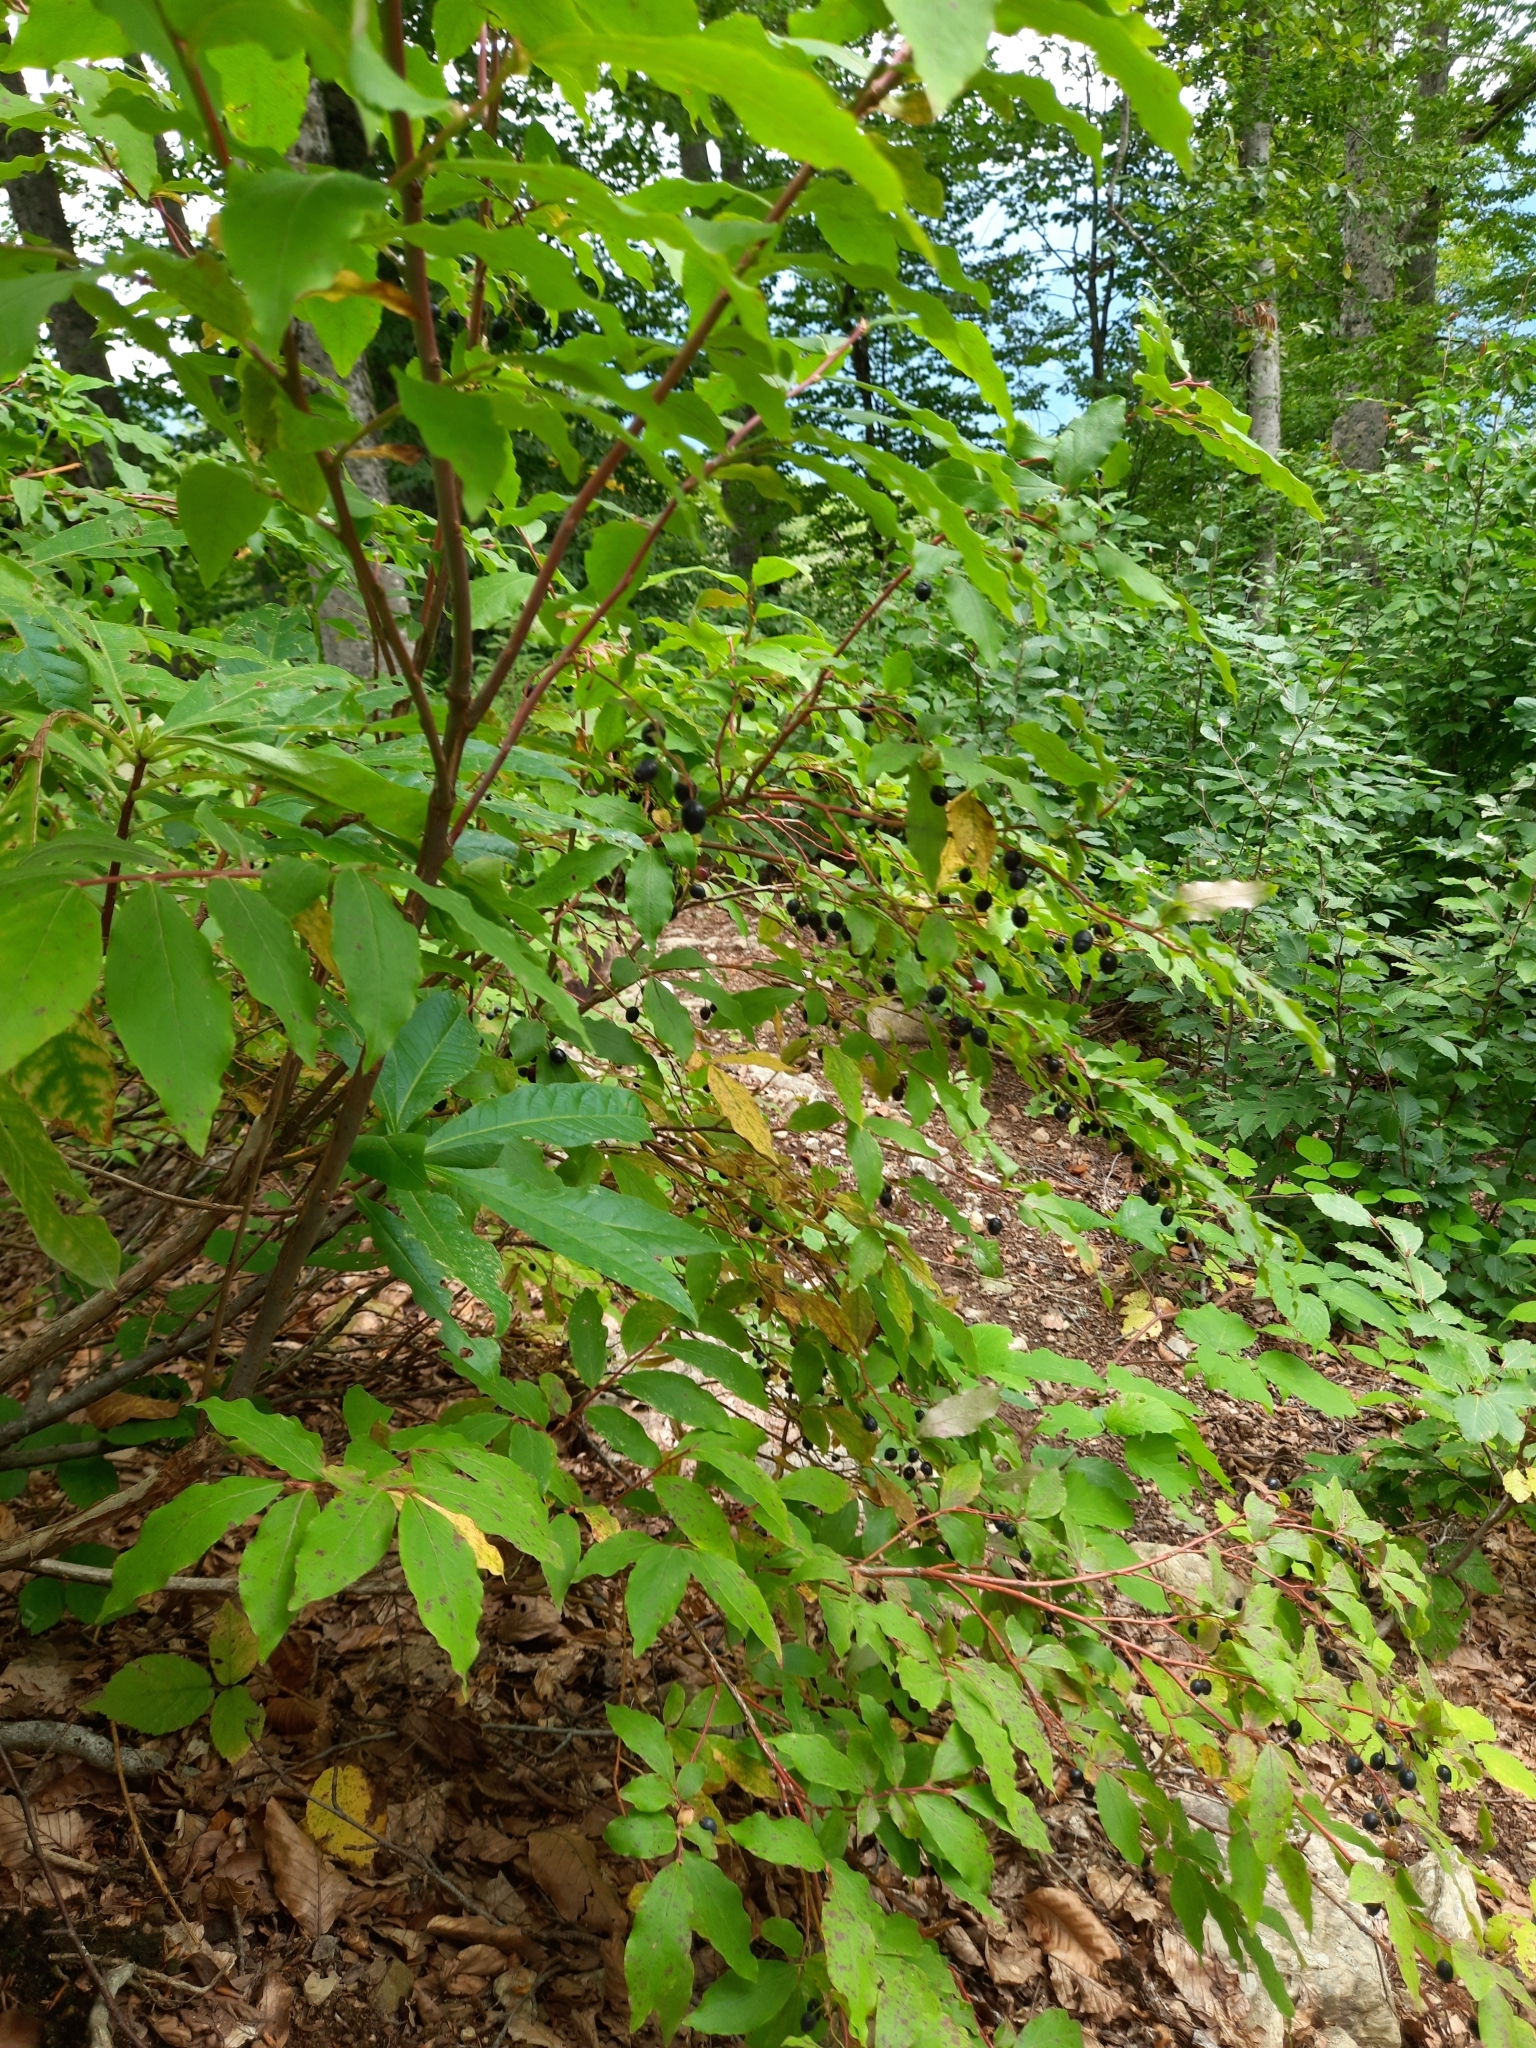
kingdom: Plantae
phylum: Tracheophyta
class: Magnoliopsida
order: Ericales
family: Ericaceae
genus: Vaccinium
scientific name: Vaccinium arctostaphylos
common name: Caucasian whortleberry
